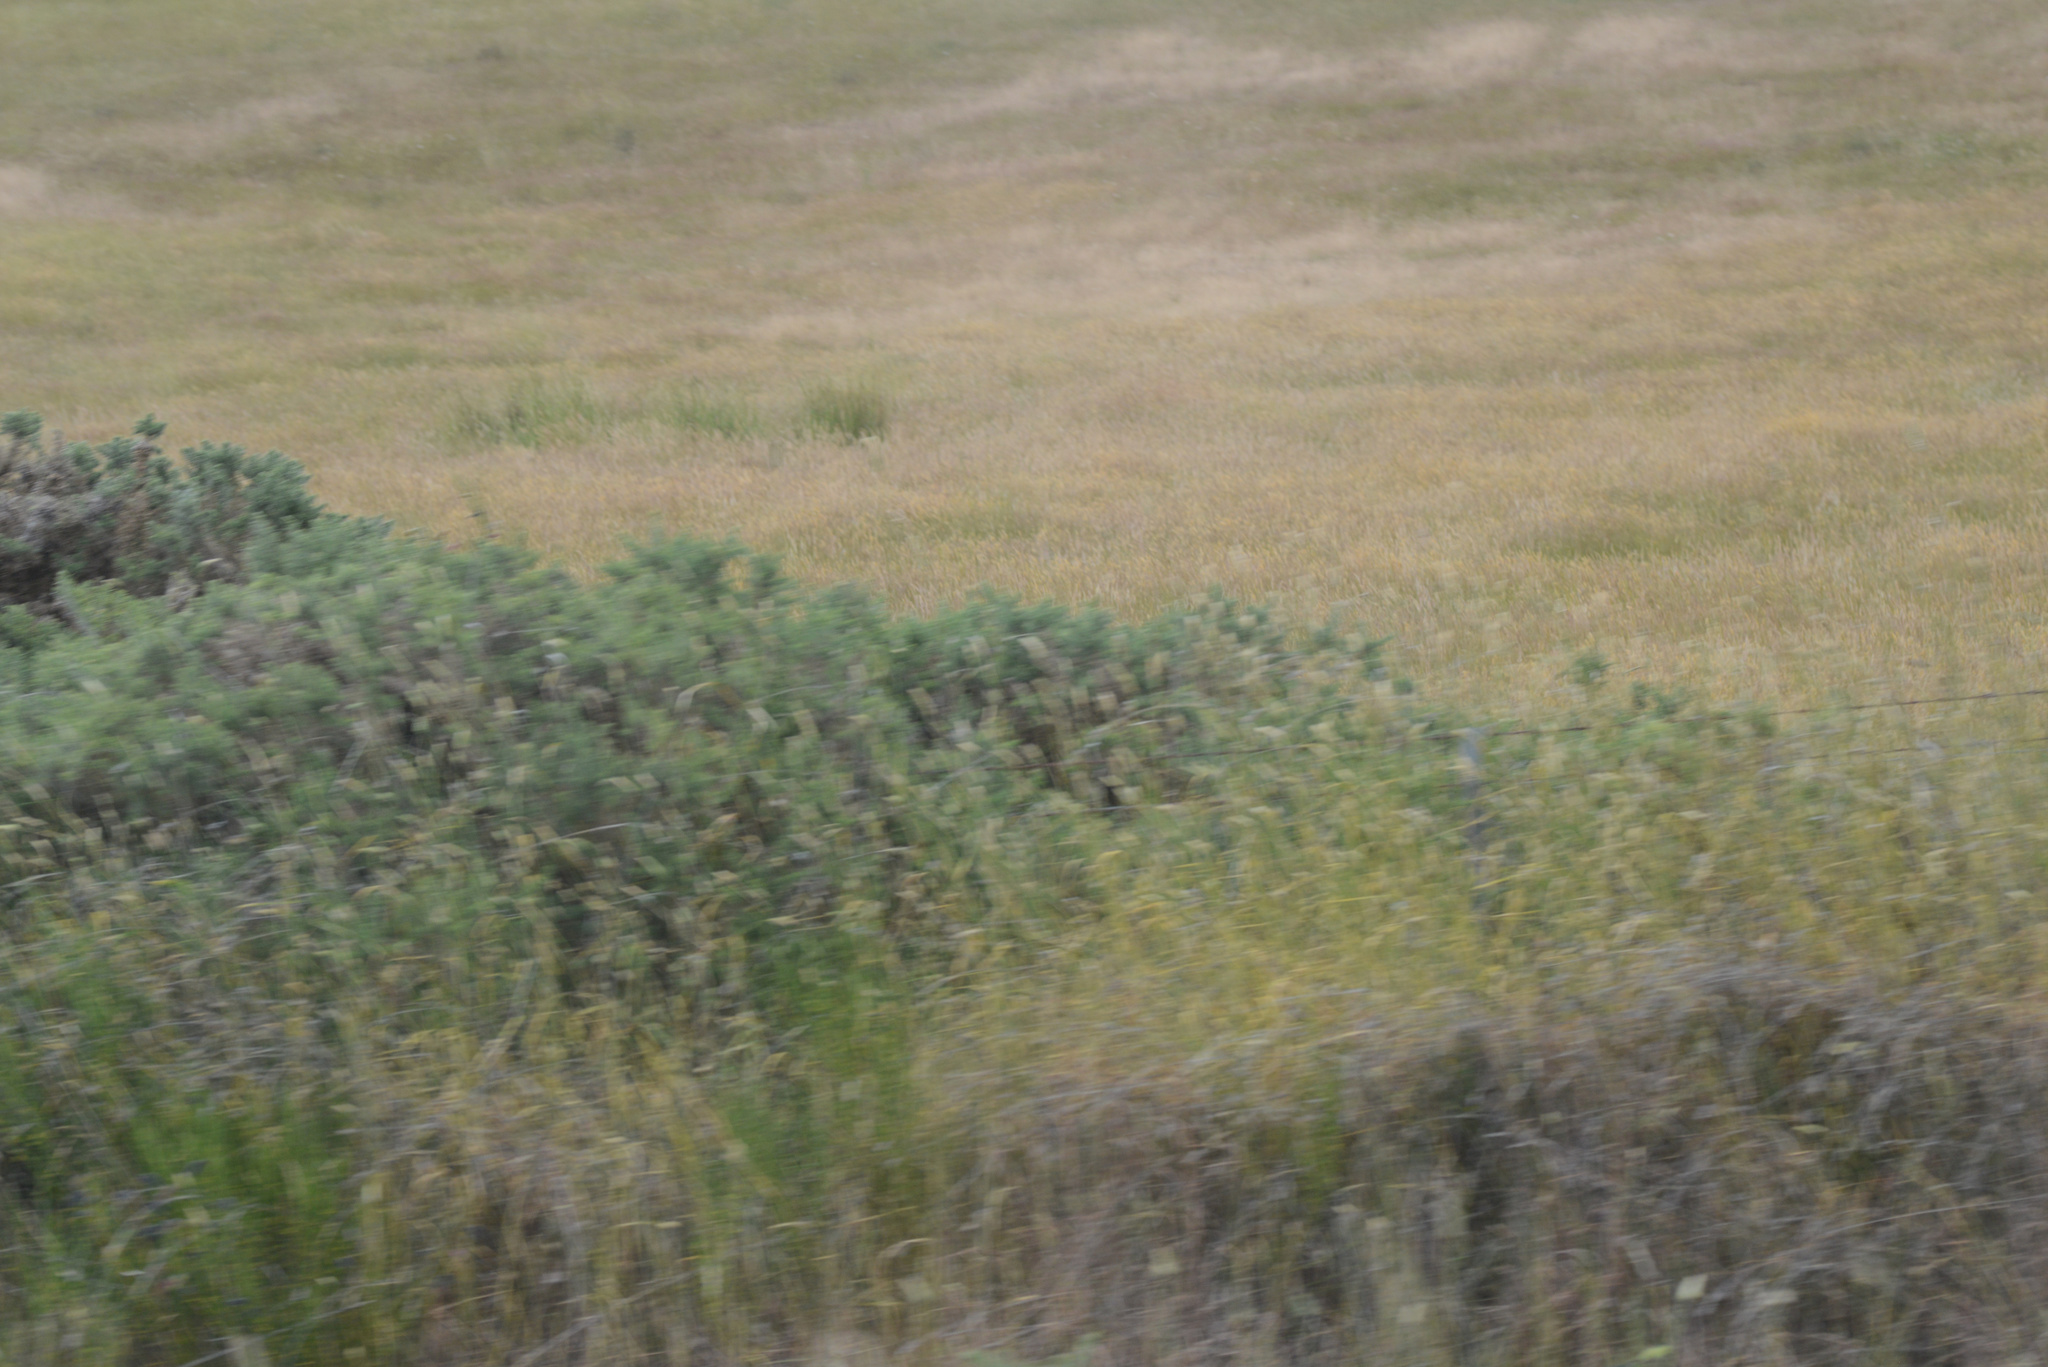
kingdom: Plantae
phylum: Tracheophyta
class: Magnoliopsida
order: Fabales
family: Fabaceae
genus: Ulex
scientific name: Ulex europaeus
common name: Common gorse
